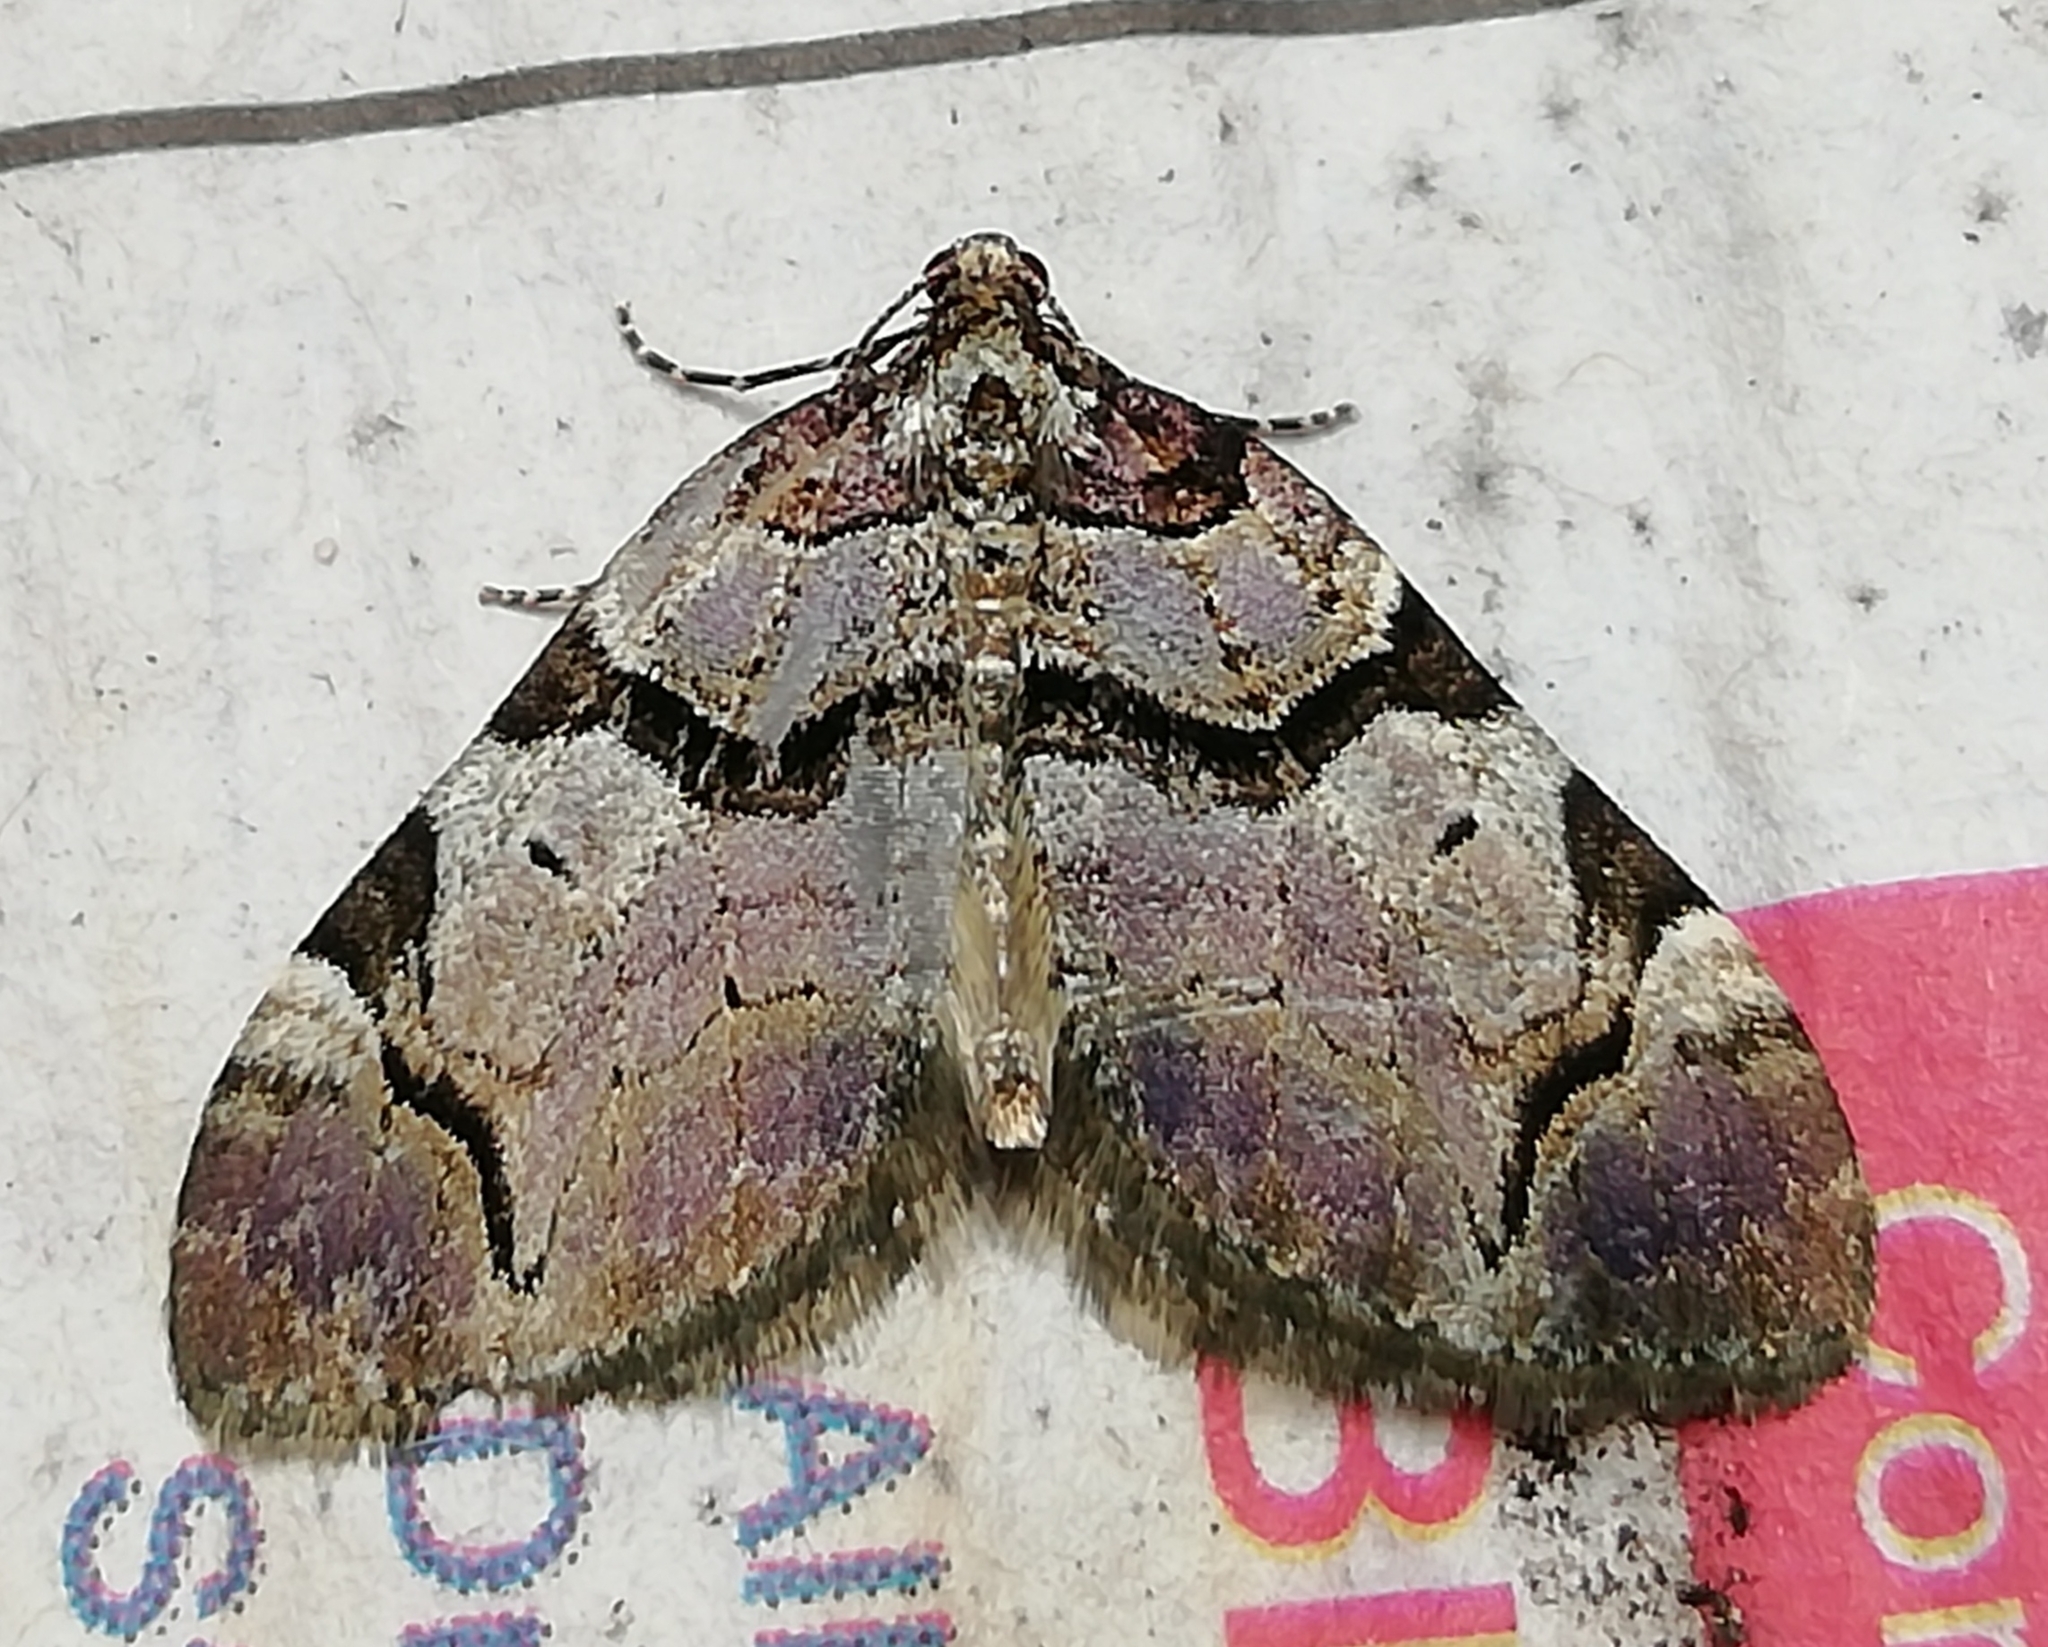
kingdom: Animalia
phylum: Arthropoda
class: Insecta
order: Lepidoptera
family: Geometridae
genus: Anticlea
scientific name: Anticlea derivata
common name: Streamer
